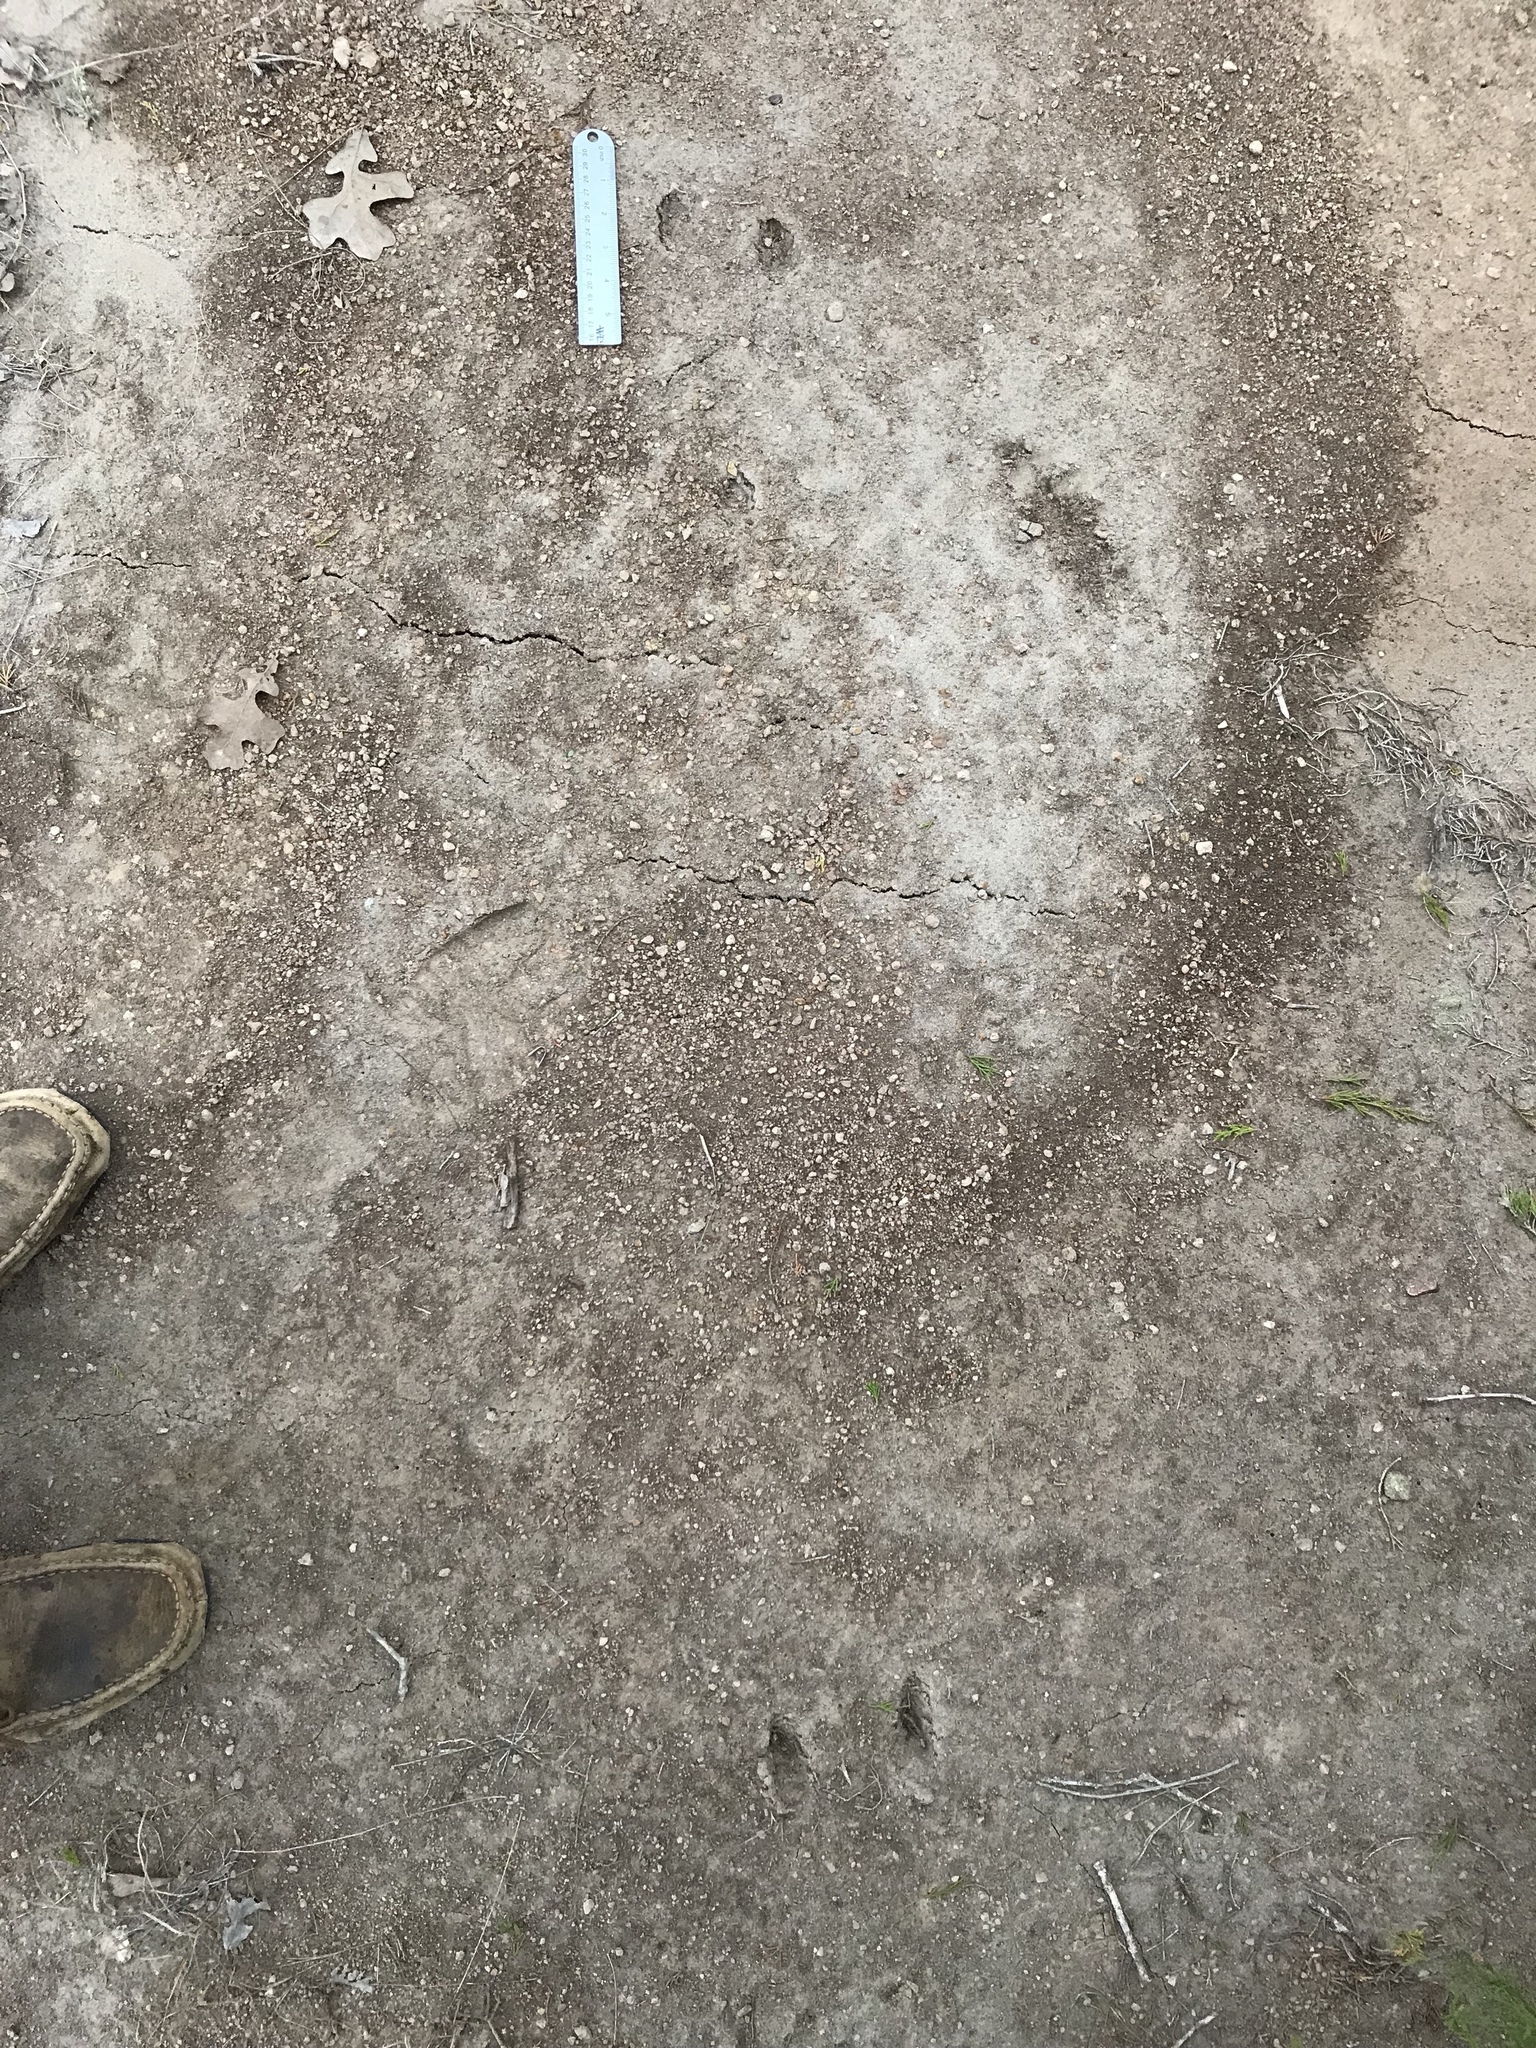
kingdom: Animalia
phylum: Chordata
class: Mammalia
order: Lagomorpha
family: Leporidae
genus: Sylvilagus
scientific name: Sylvilagus floridanus
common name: Eastern cottontail
